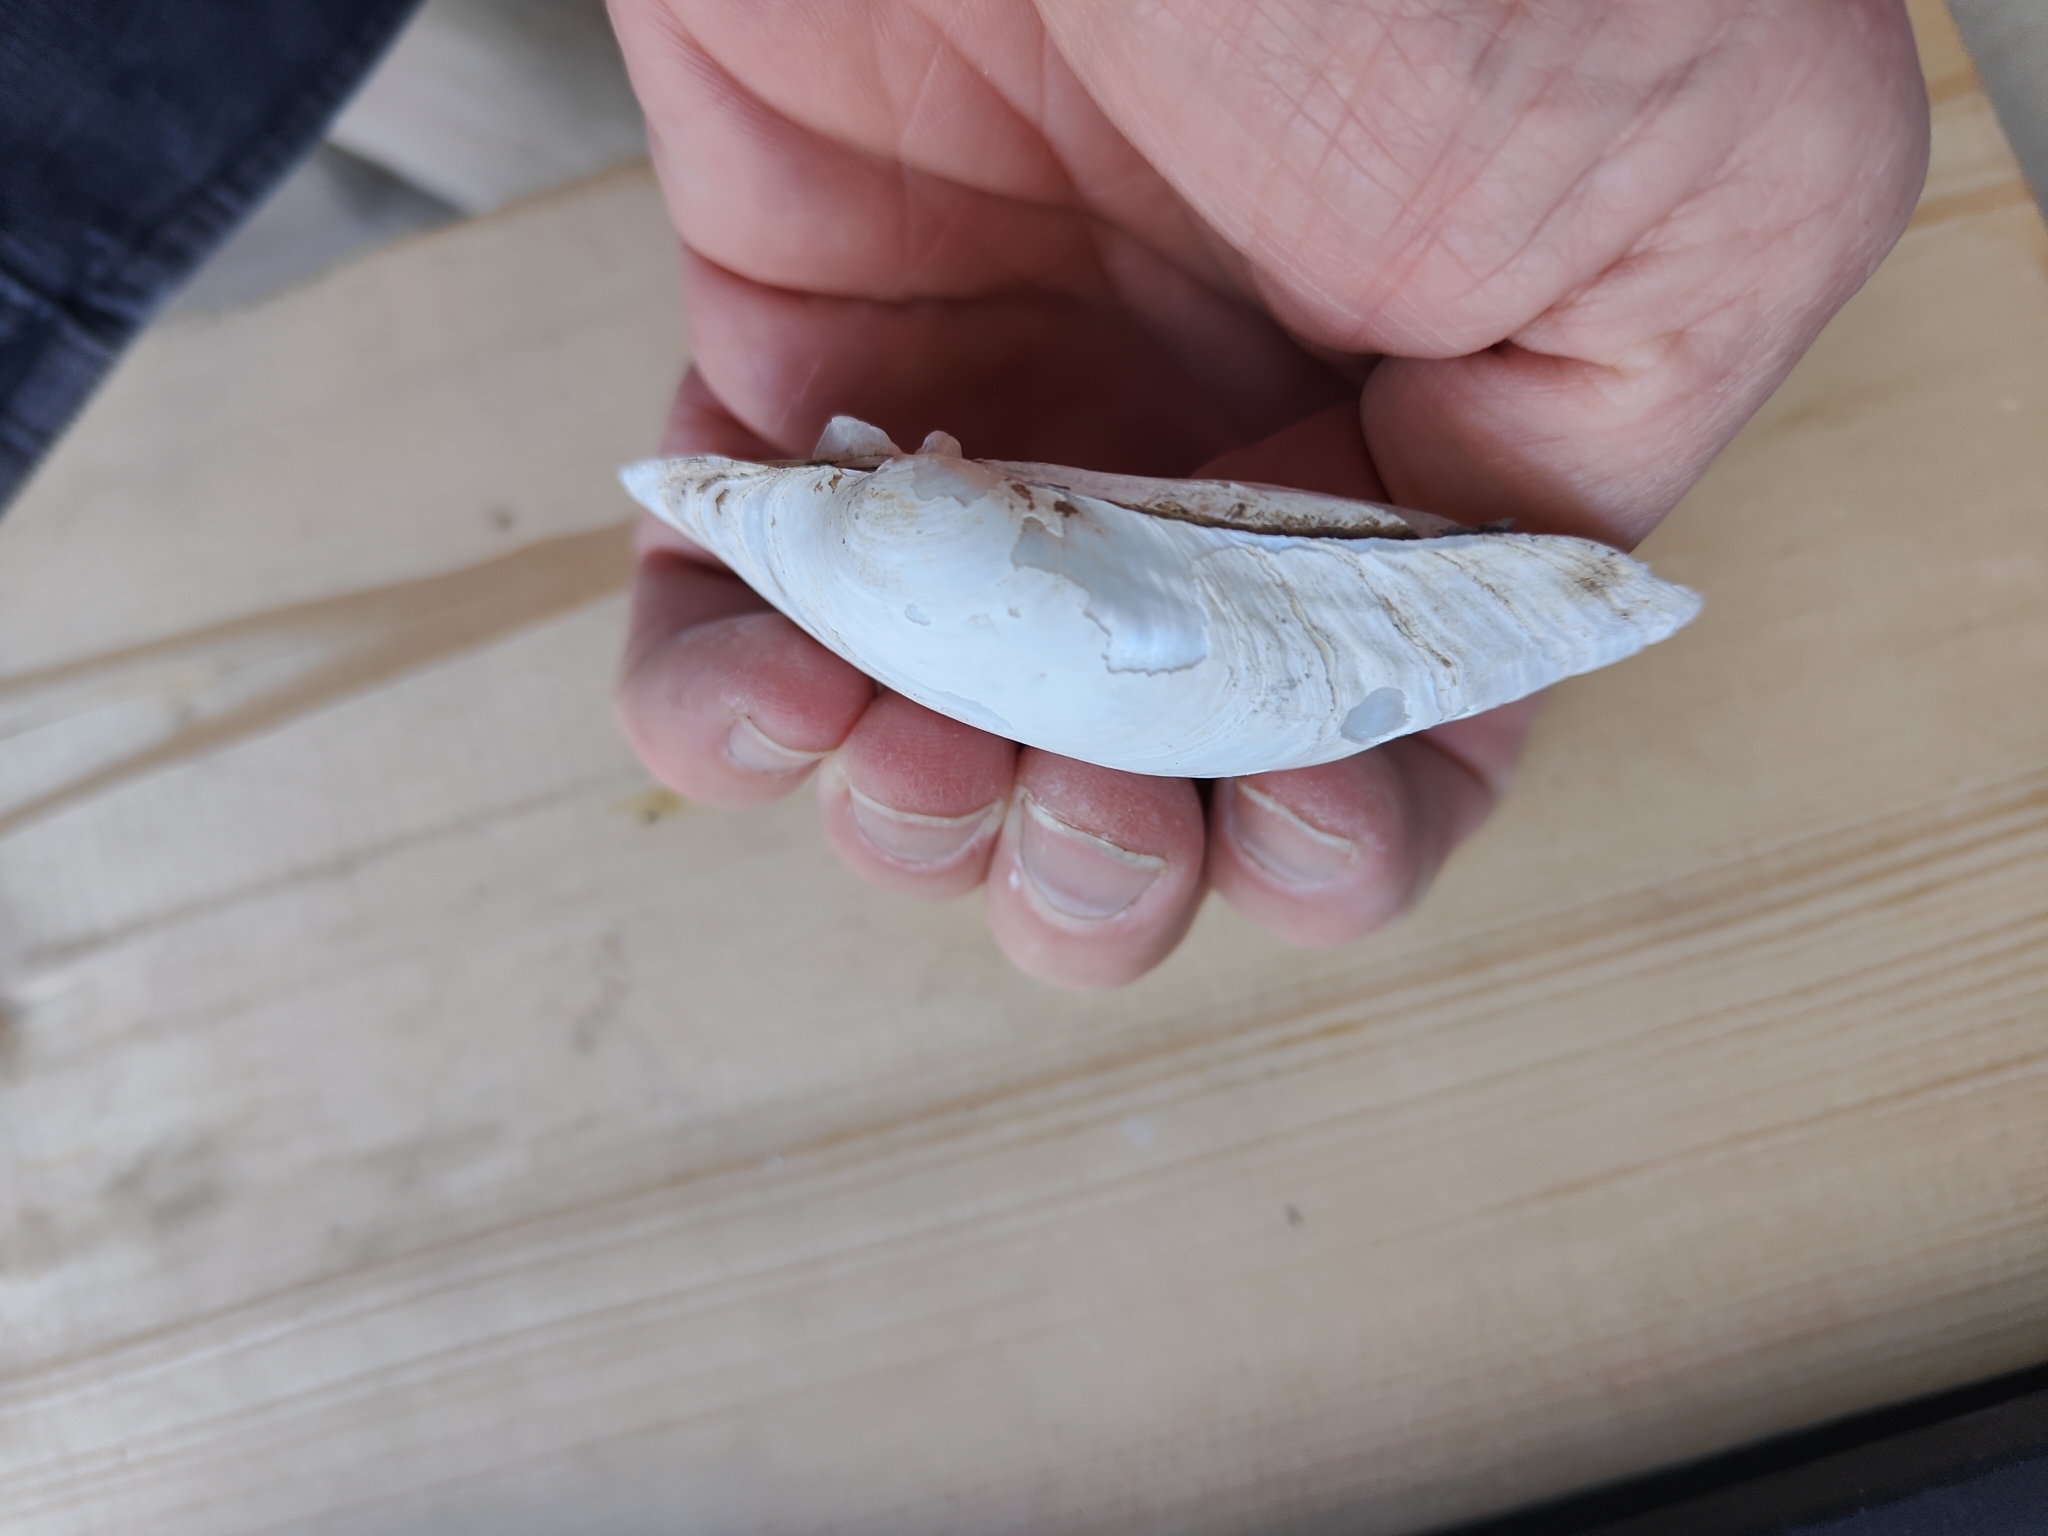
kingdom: Animalia
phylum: Mollusca
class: Bivalvia
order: Unionida
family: Unionidae
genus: Lampsilis
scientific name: Lampsilis cardium
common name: Plain pocketbook
